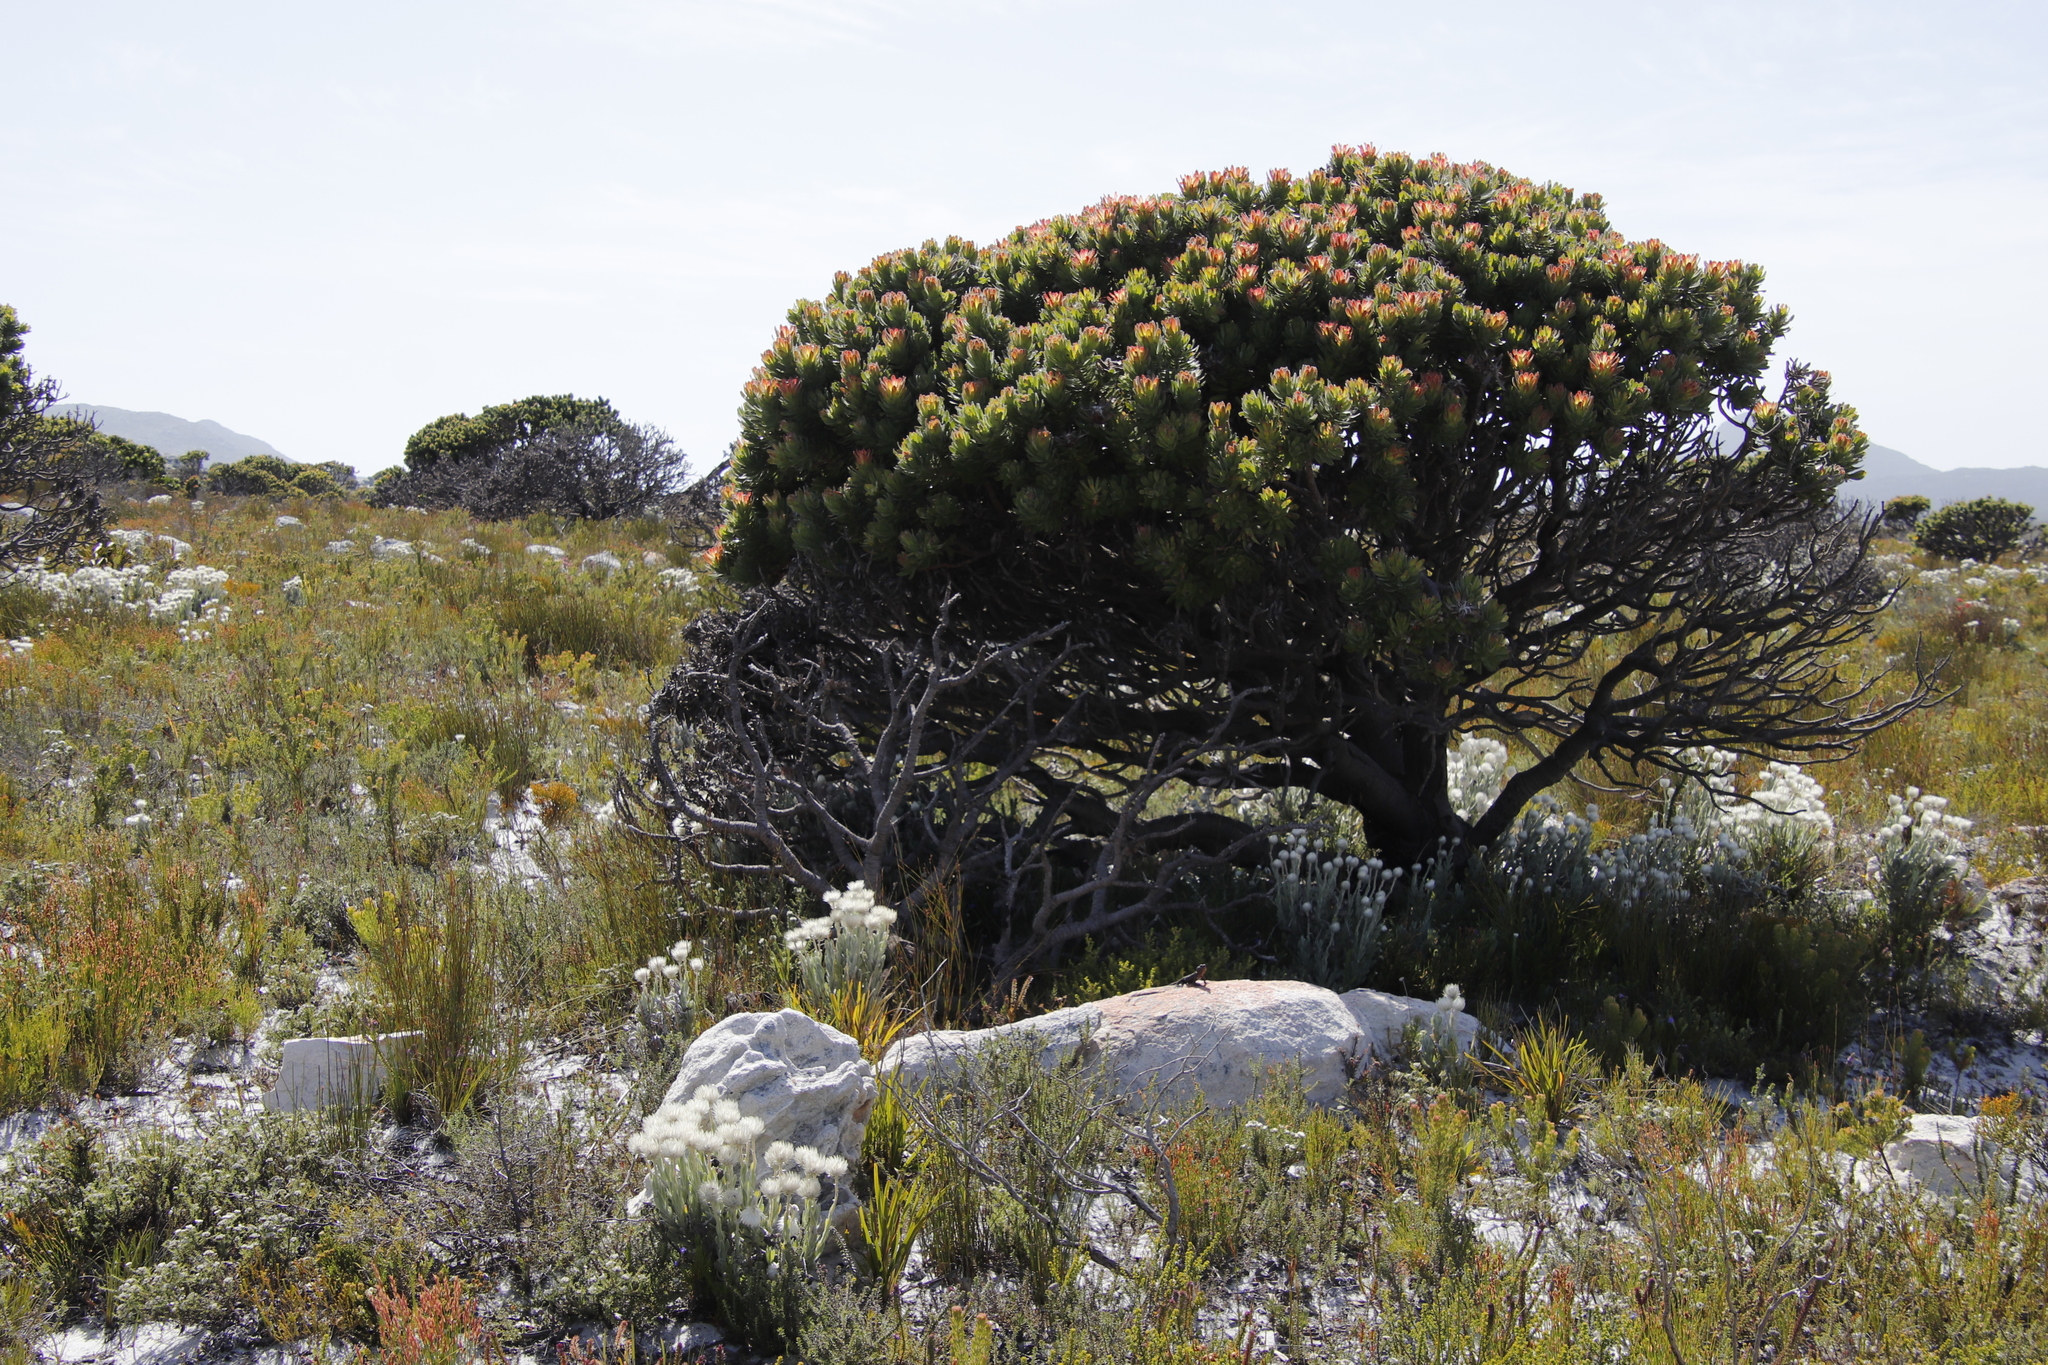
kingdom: Plantae
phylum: Tracheophyta
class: Magnoliopsida
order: Proteales
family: Proteaceae
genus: Mimetes
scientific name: Mimetes fimbriifolius
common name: Fringed bottlebrush
